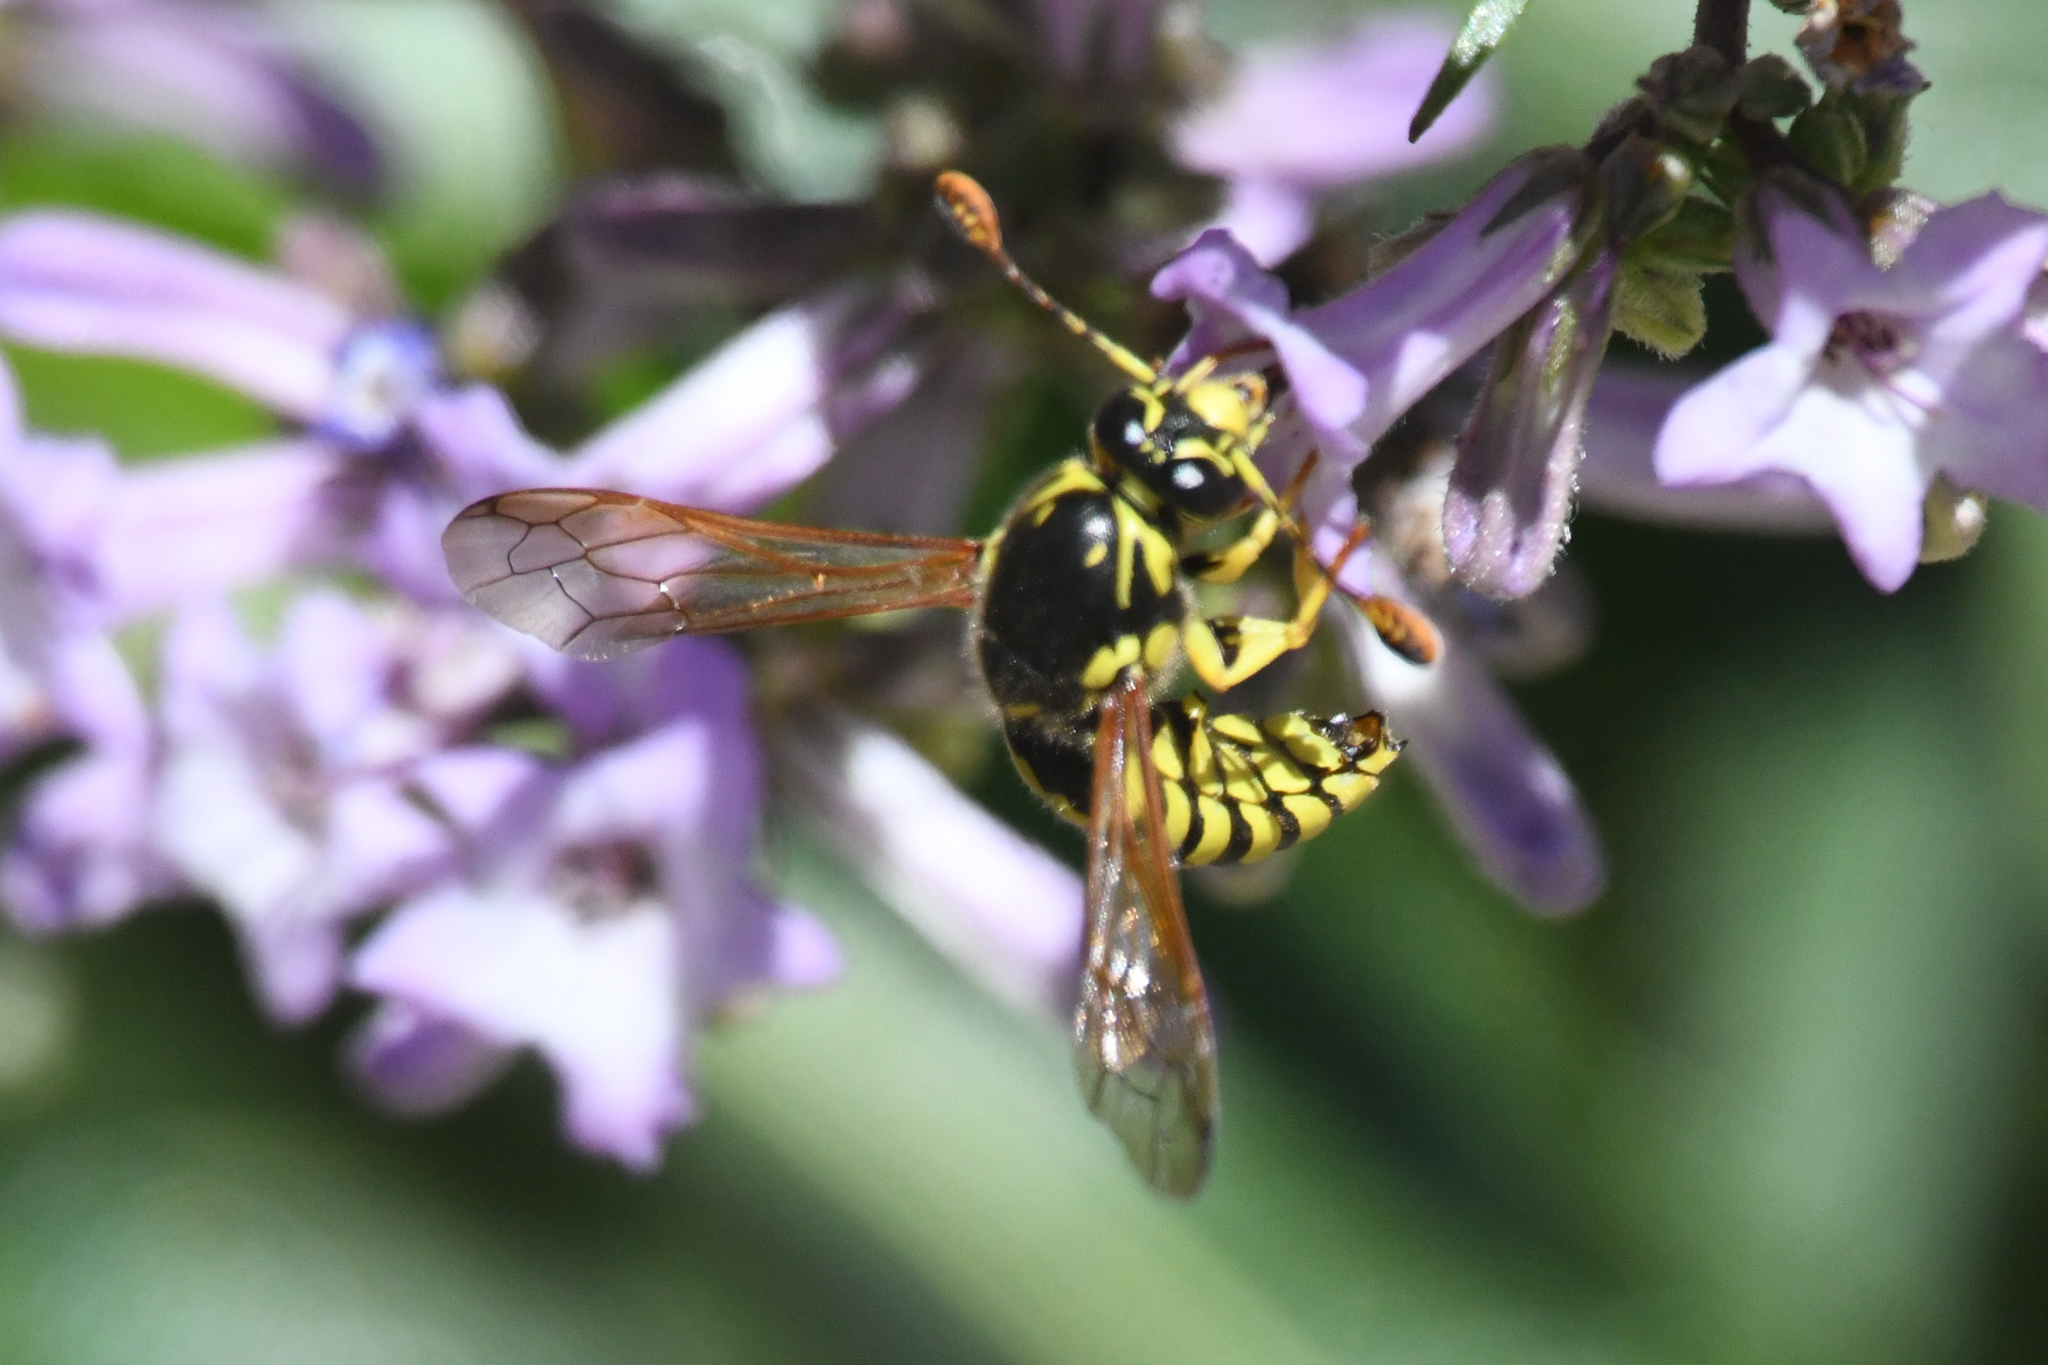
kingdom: Animalia
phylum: Arthropoda
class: Insecta
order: Hymenoptera
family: Masaridae
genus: Pseudomasaris
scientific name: Pseudomasaris wheeleri
